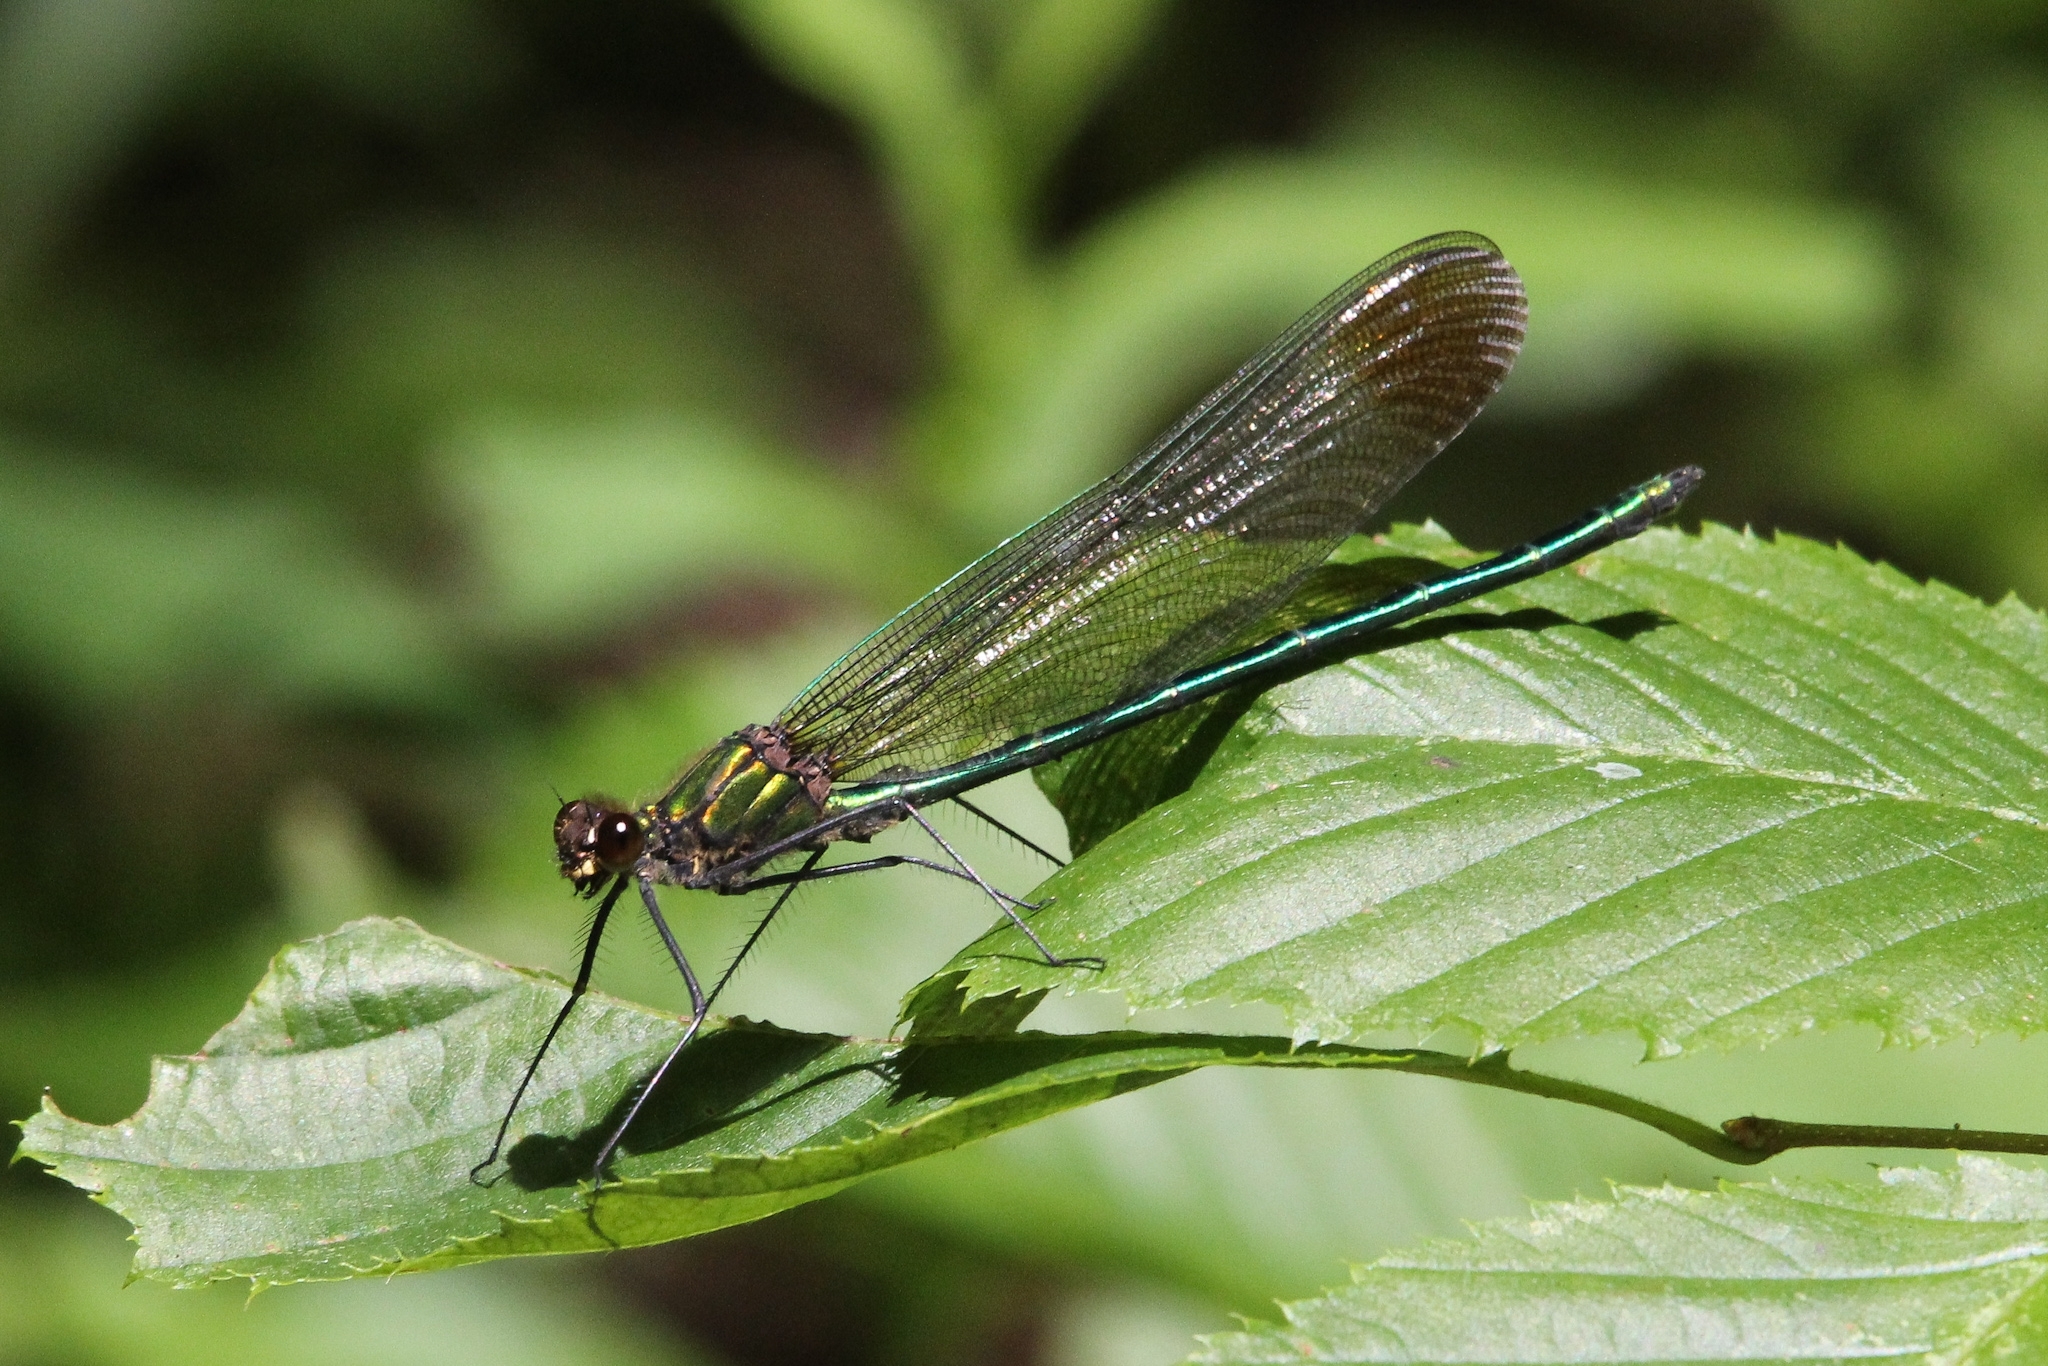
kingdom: Animalia
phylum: Arthropoda
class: Insecta
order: Odonata
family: Calopterygidae
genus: Calopteryx
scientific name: Calopteryx amata
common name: Superb jewelwing
